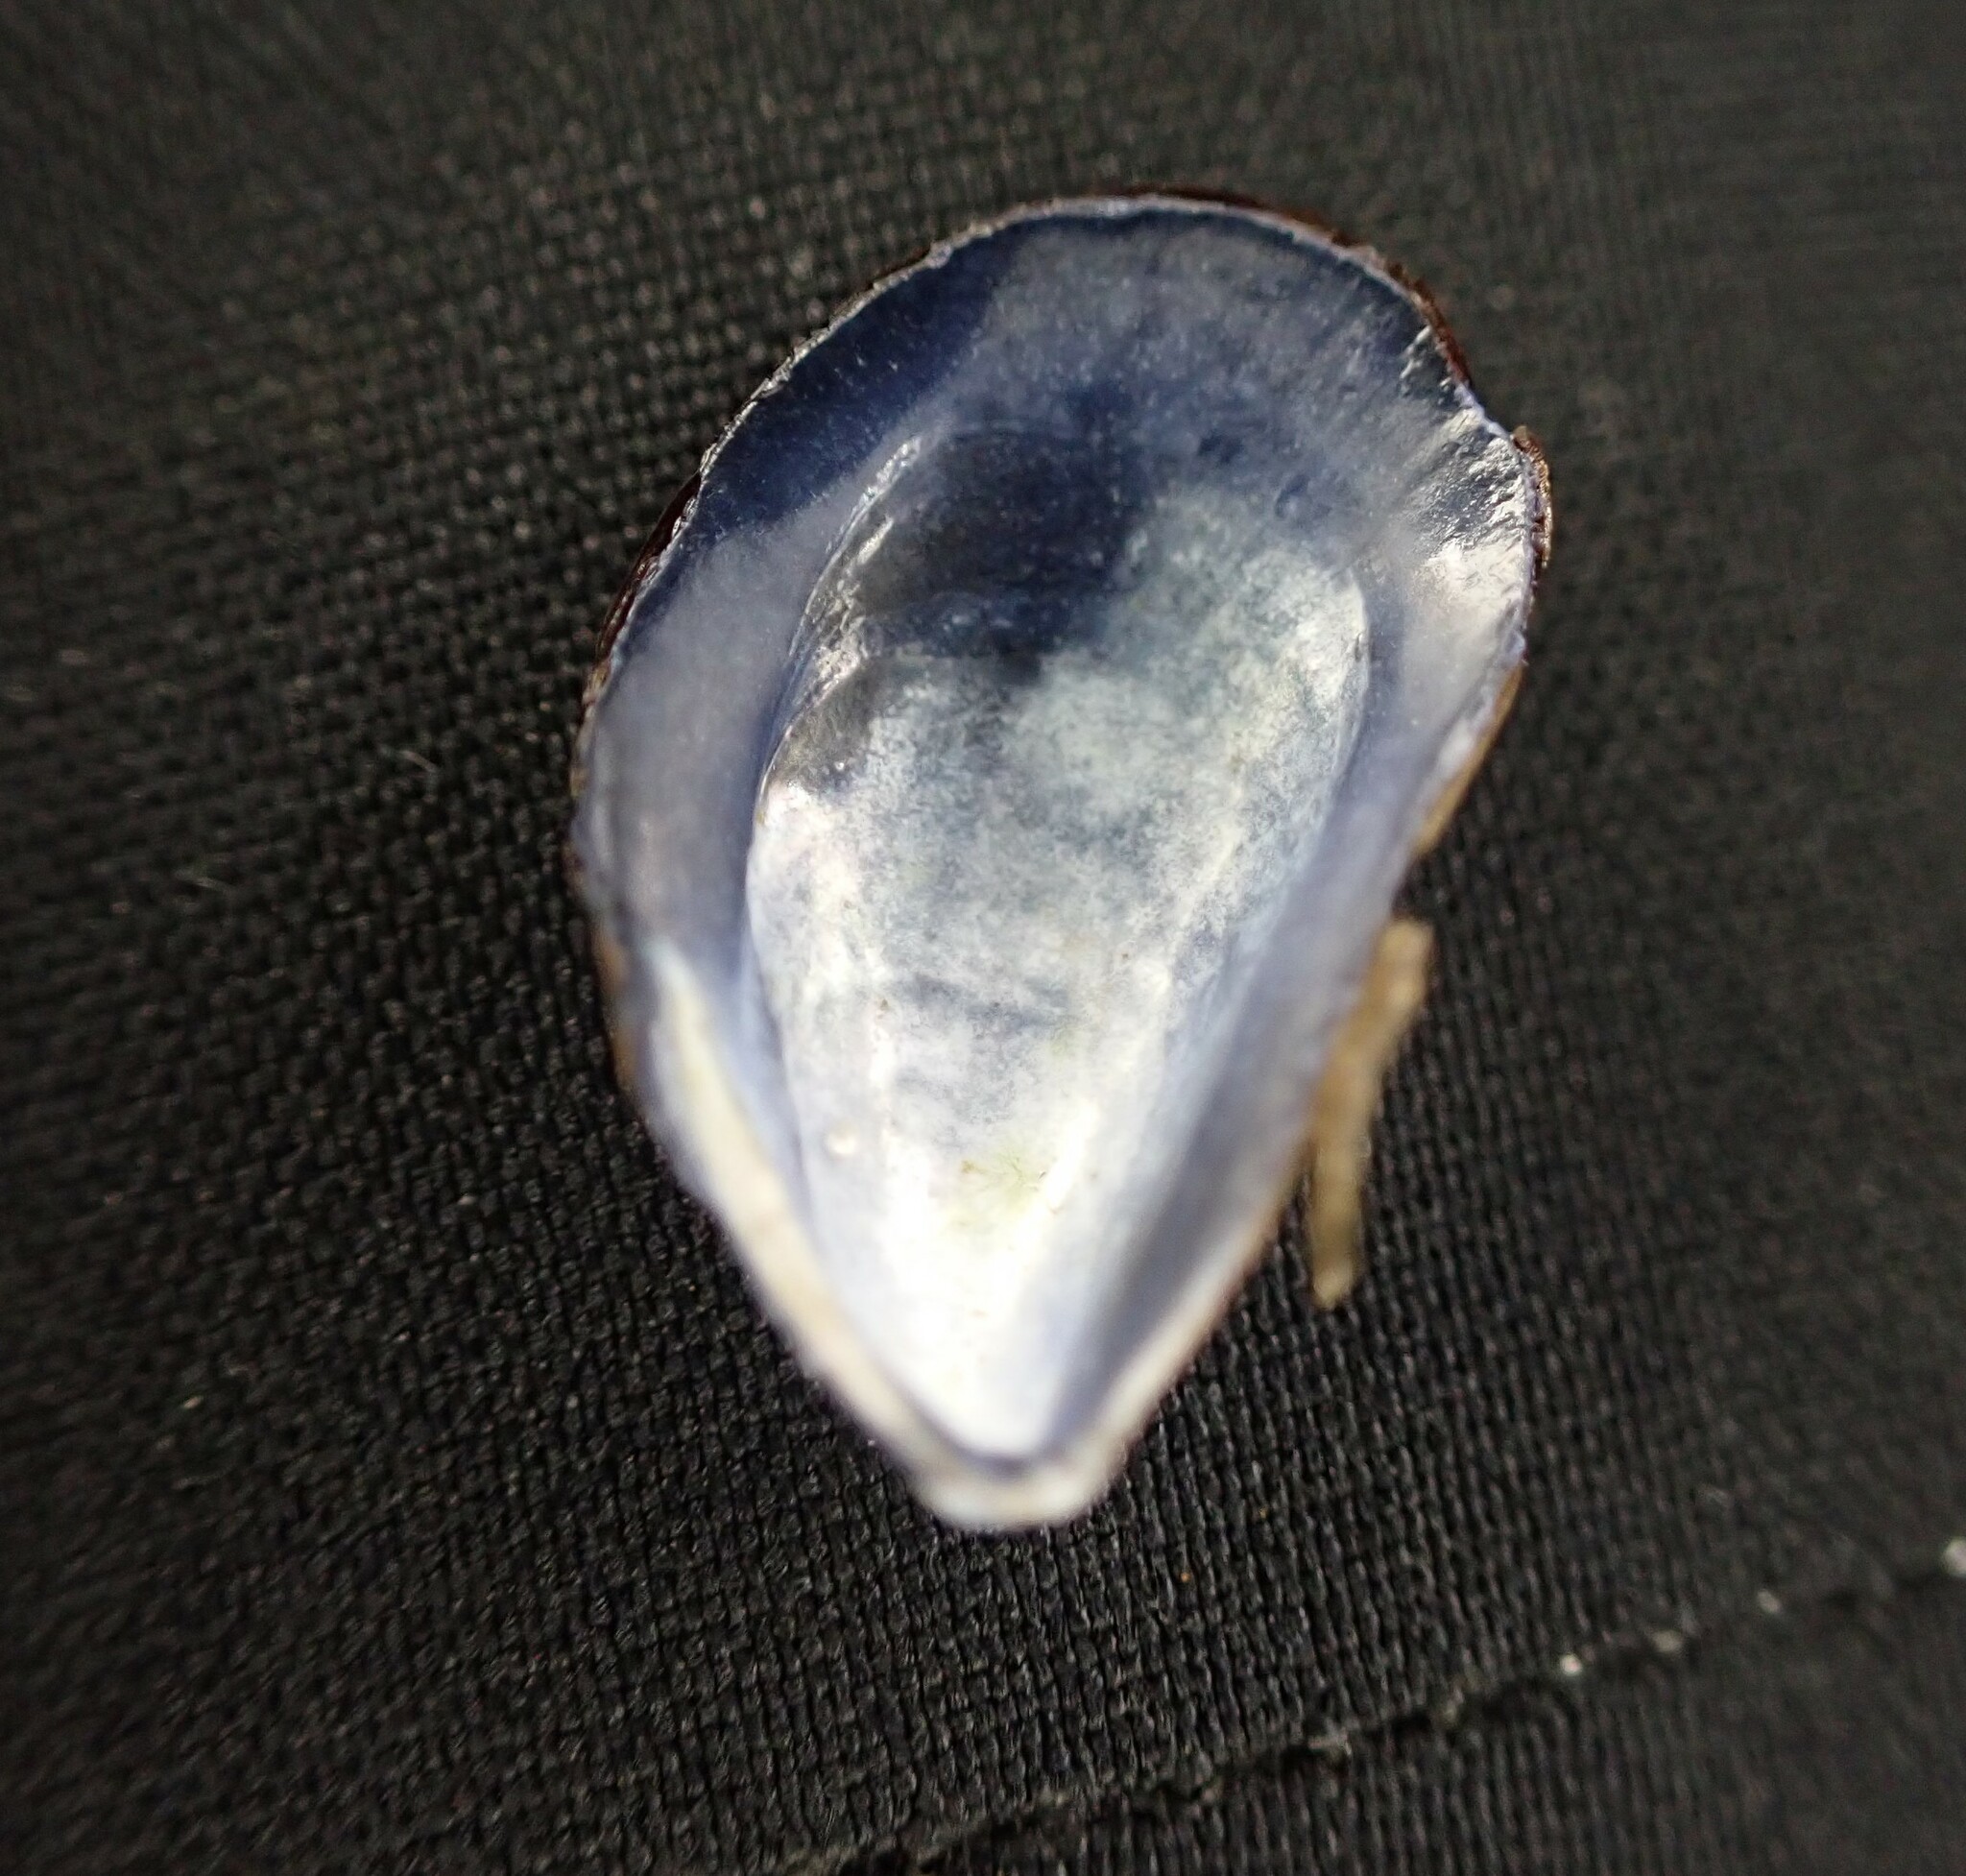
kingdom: Animalia
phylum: Mollusca
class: Bivalvia
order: Mytilida
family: Mytilidae
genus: Mytilus
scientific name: Mytilus
